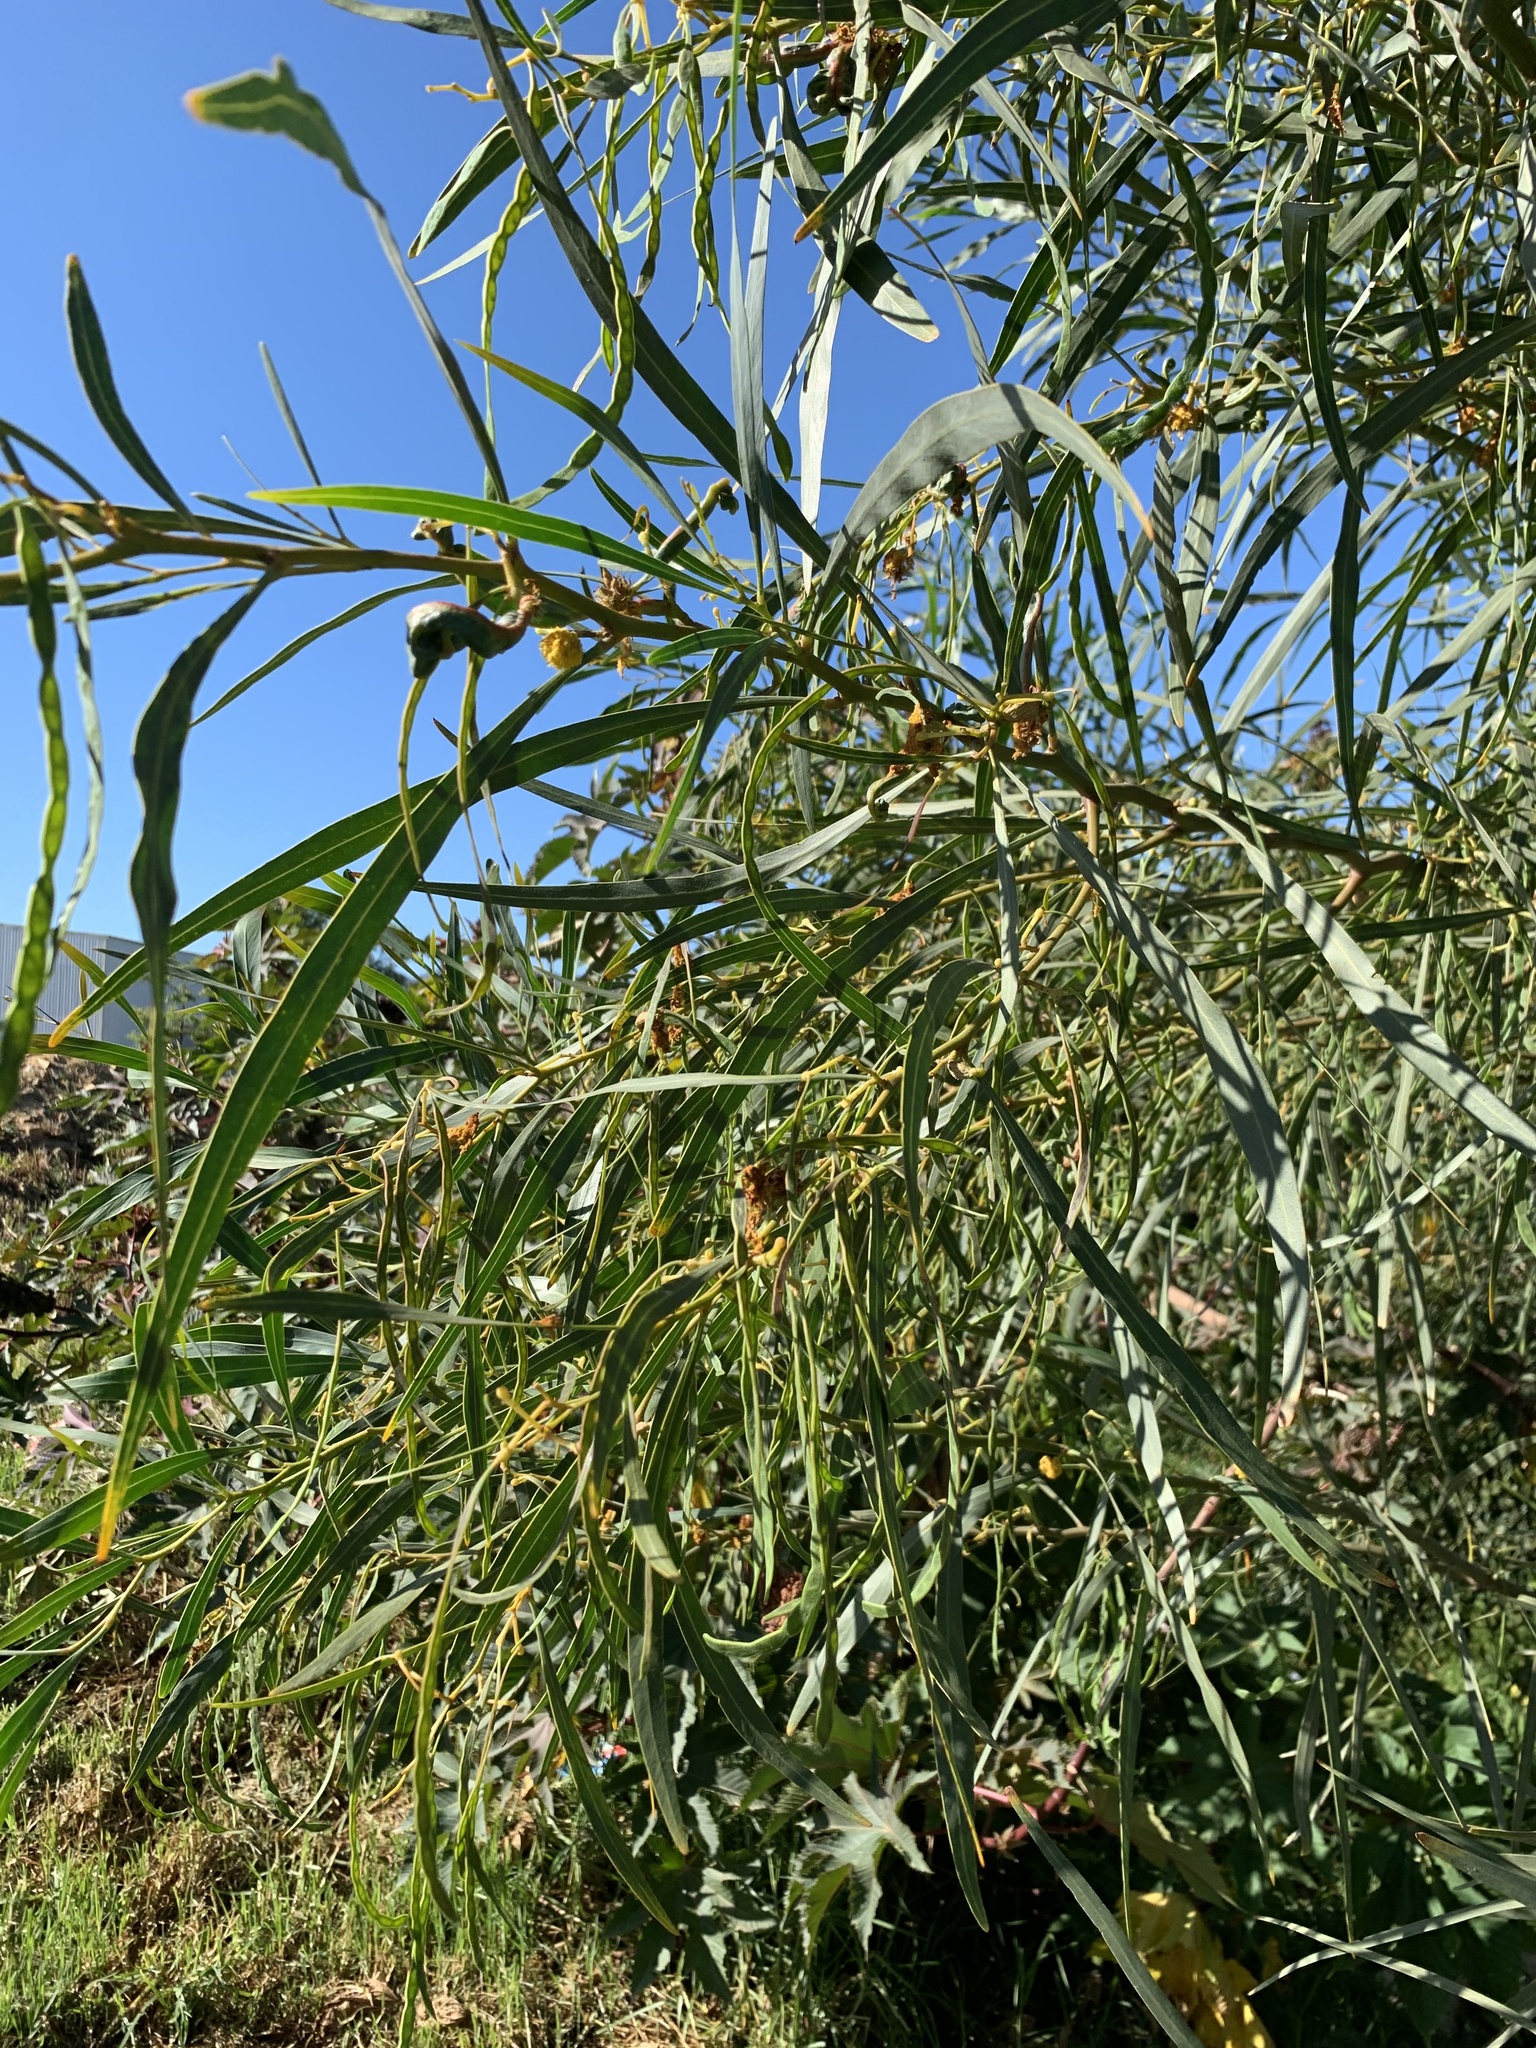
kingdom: Plantae
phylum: Tracheophyta
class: Magnoliopsida
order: Fabales
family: Fabaceae
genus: Acacia
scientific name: Acacia saligna
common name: Orange wattle
